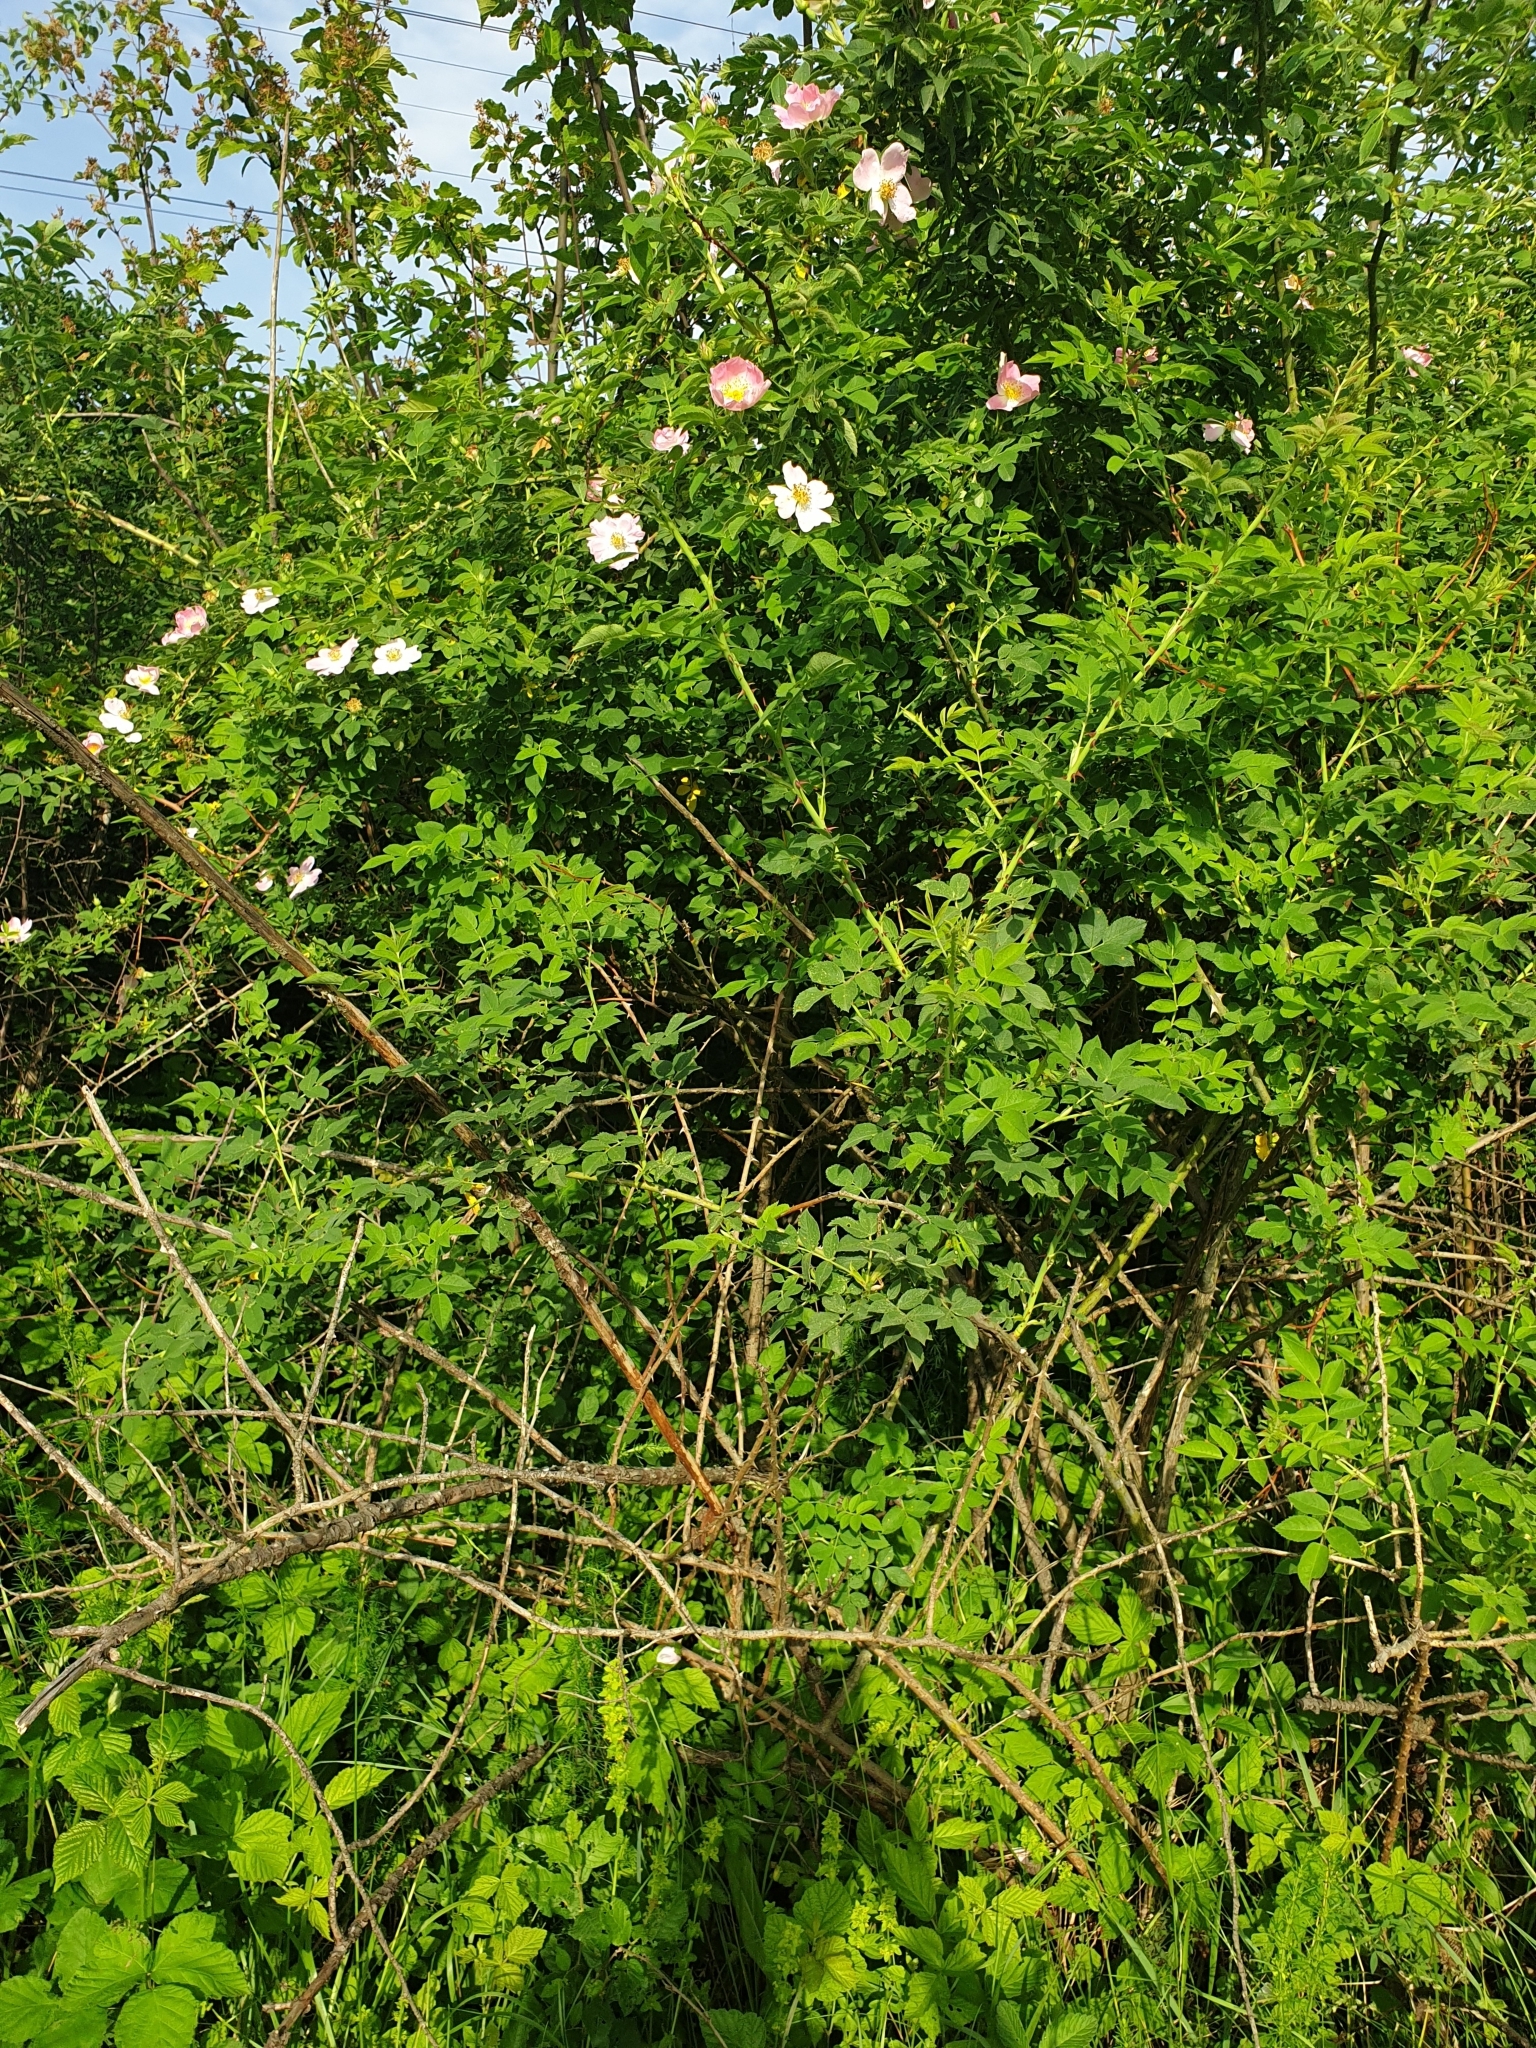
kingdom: Plantae
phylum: Tracheophyta
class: Magnoliopsida
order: Rosales
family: Rosaceae
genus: Rosa
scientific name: Rosa
